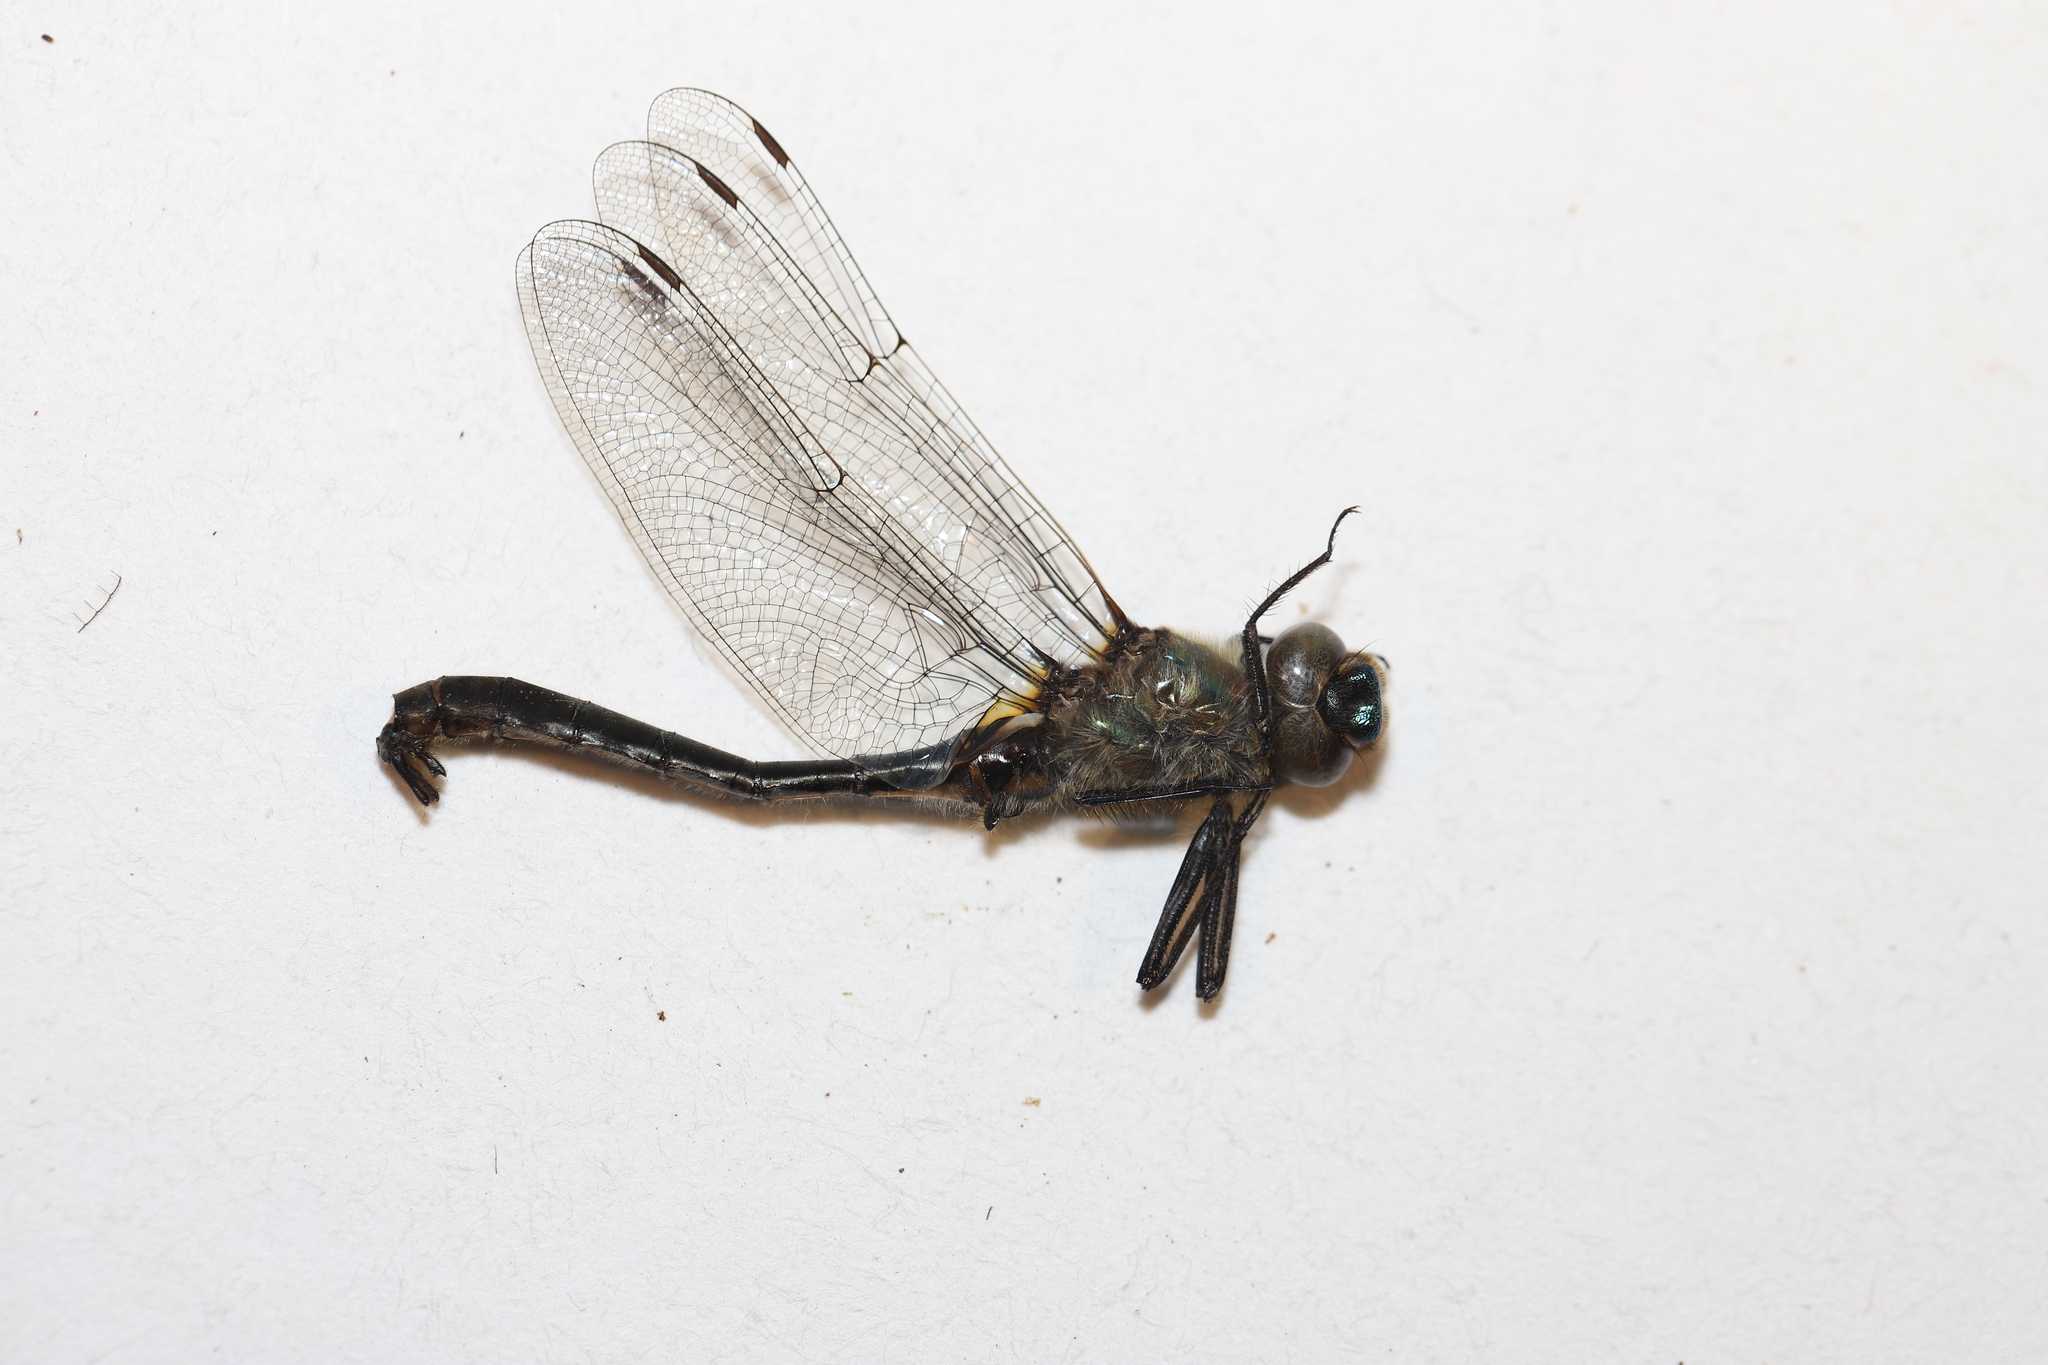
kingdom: Animalia
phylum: Arthropoda
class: Insecta
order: Odonata
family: Corduliidae
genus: Cordulia
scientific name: Cordulia shurtleffii
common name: American emerald
